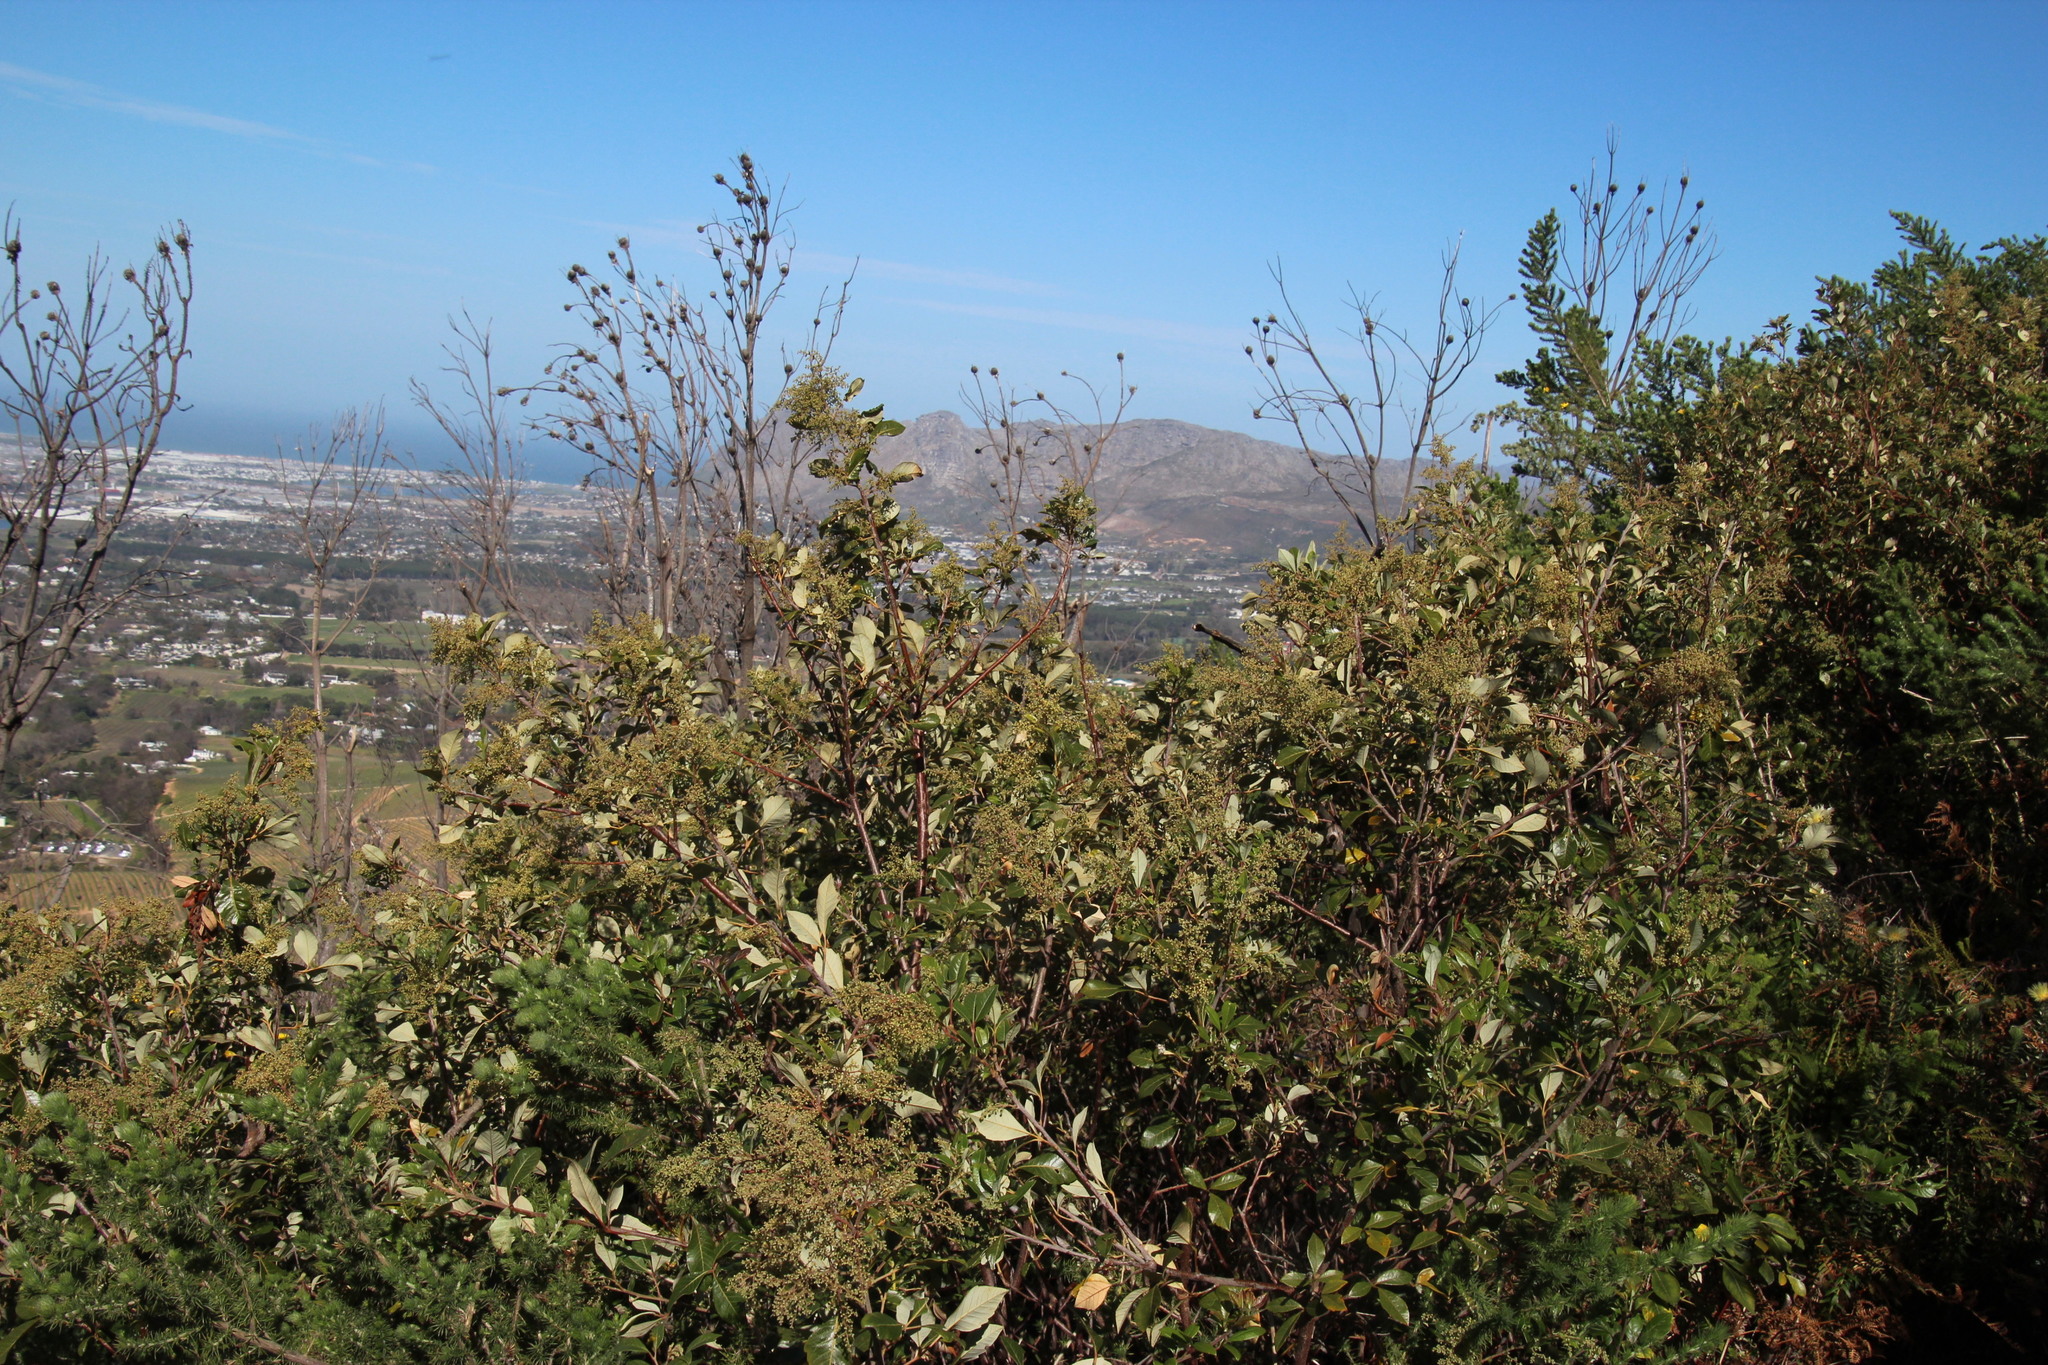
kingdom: Plantae
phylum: Tracheophyta
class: Magnoliopsida
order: Sapindales
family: Anacardiaceae
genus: Searsia
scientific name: Searsia tomentosa
